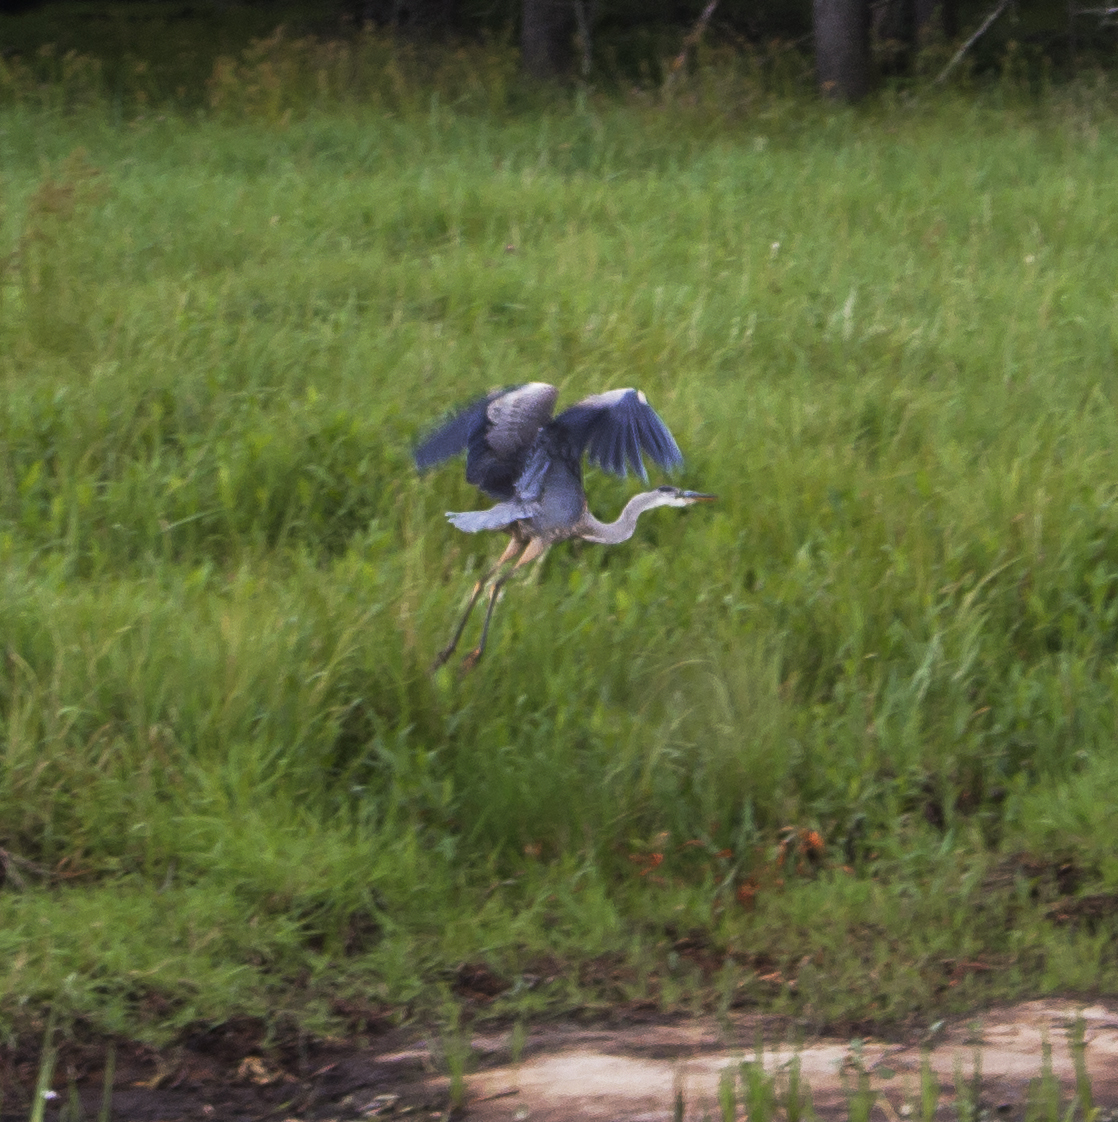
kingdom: Animalia
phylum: Chordata
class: Aves
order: Pelecaniformes
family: Ardeidae
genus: Ardea
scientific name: Ardea herodias
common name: Great blue heron
